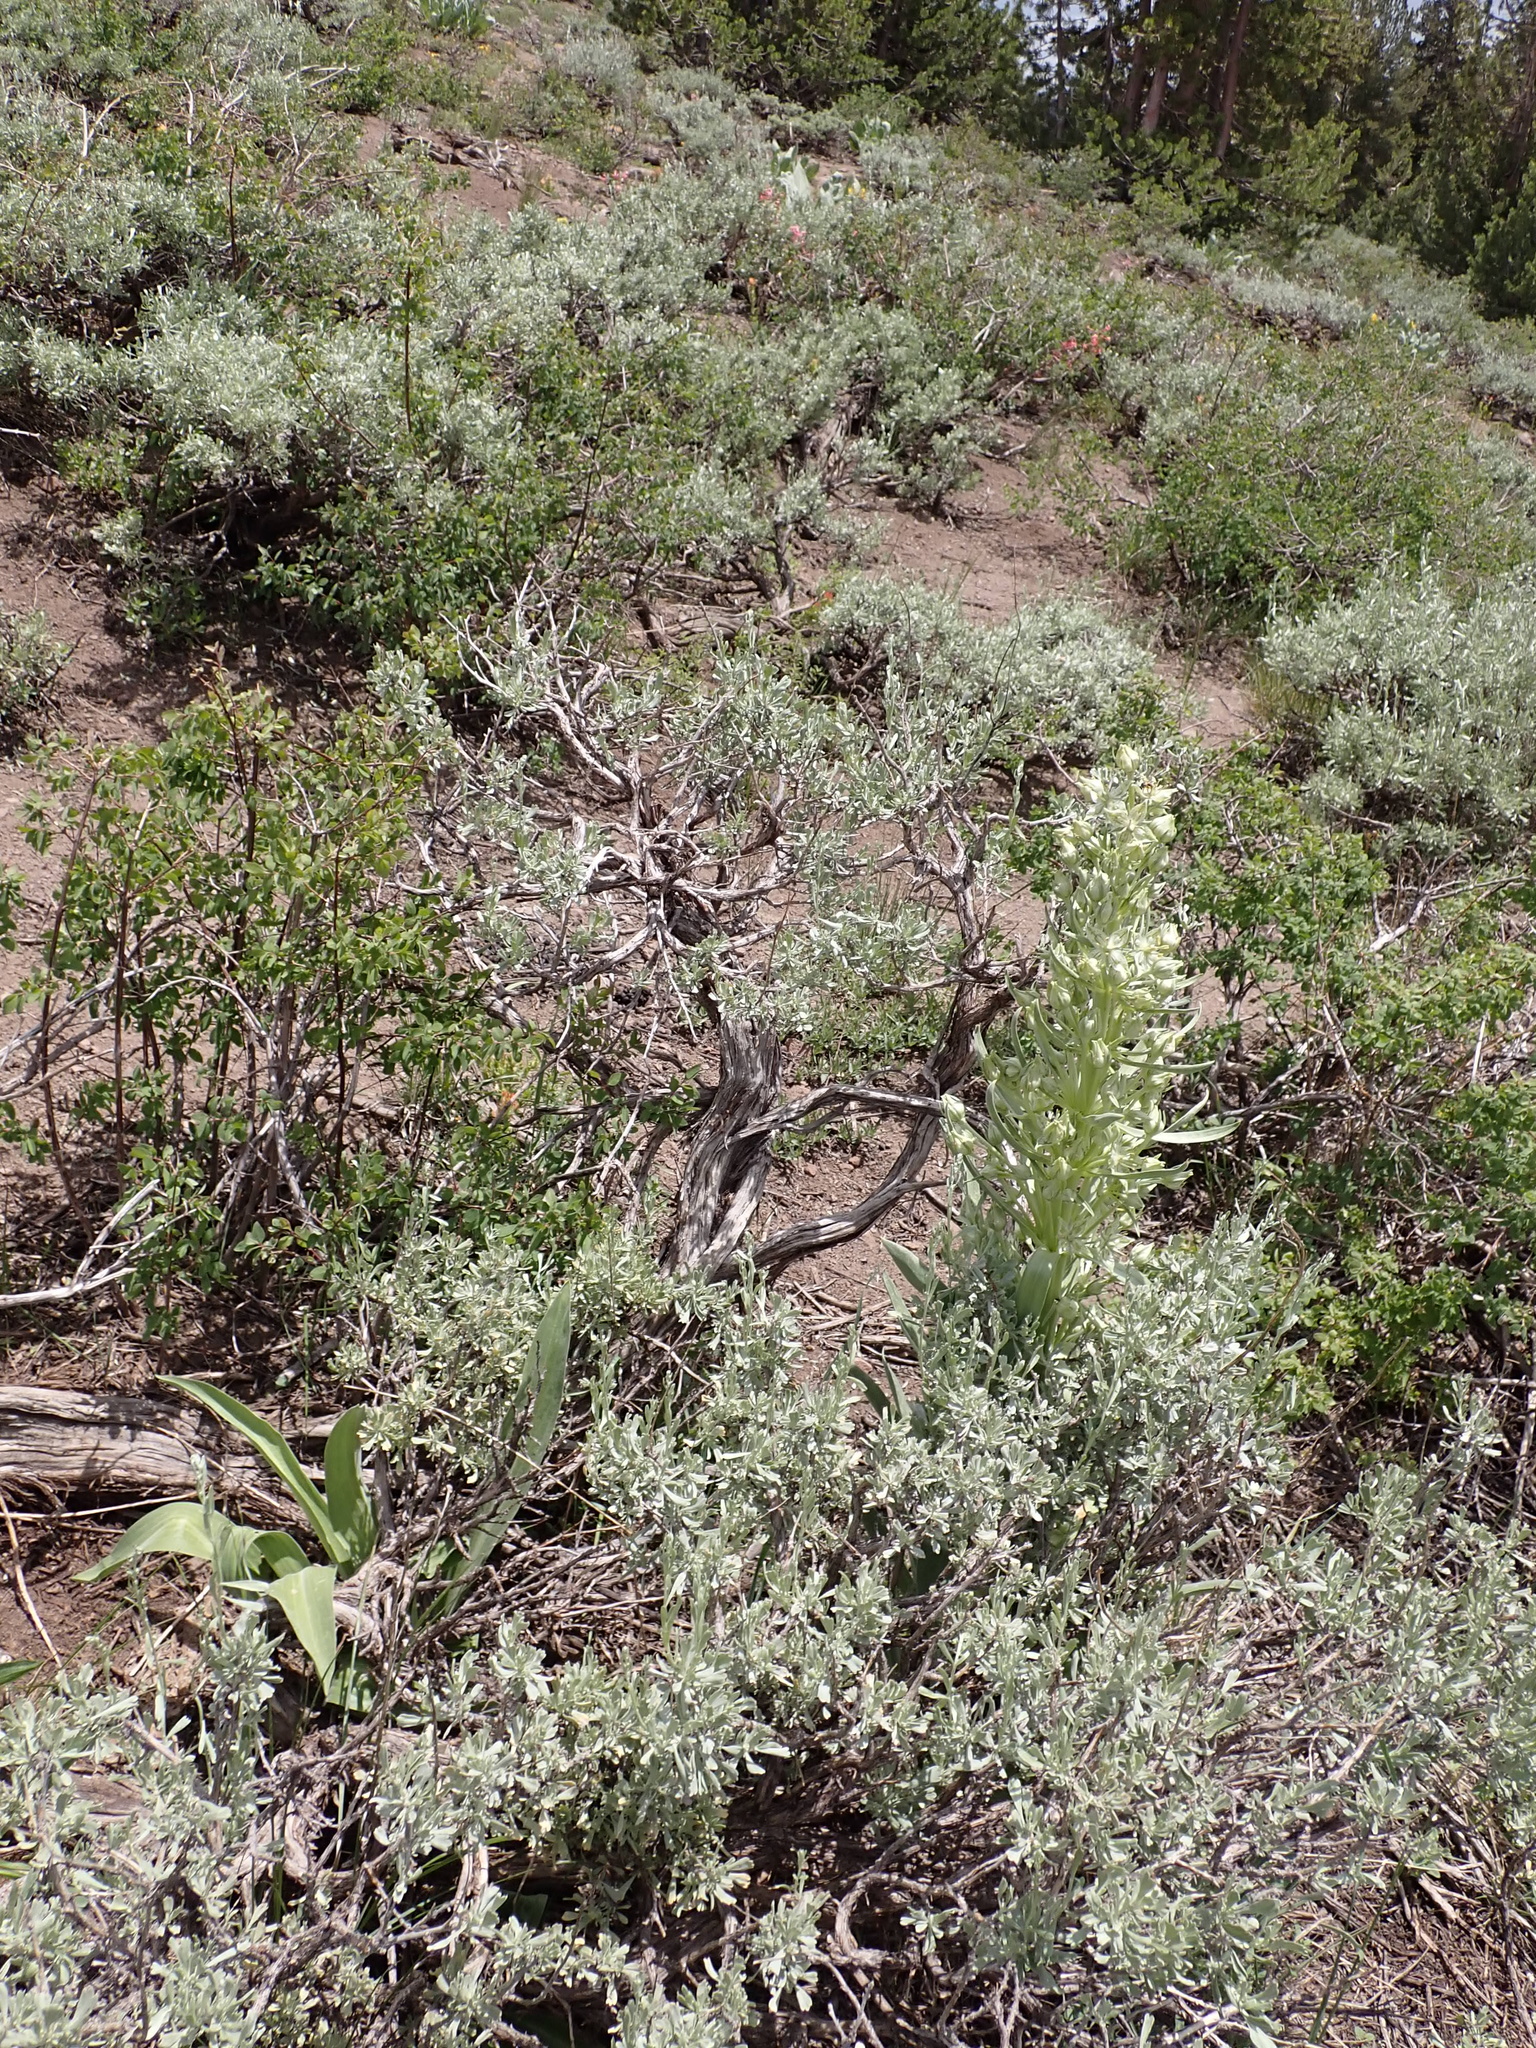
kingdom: Plantae
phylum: Tracheophyta
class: Magnoliopsida
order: Gentianales
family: Gentianaceae
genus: Frasera
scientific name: Frasera speciosa
